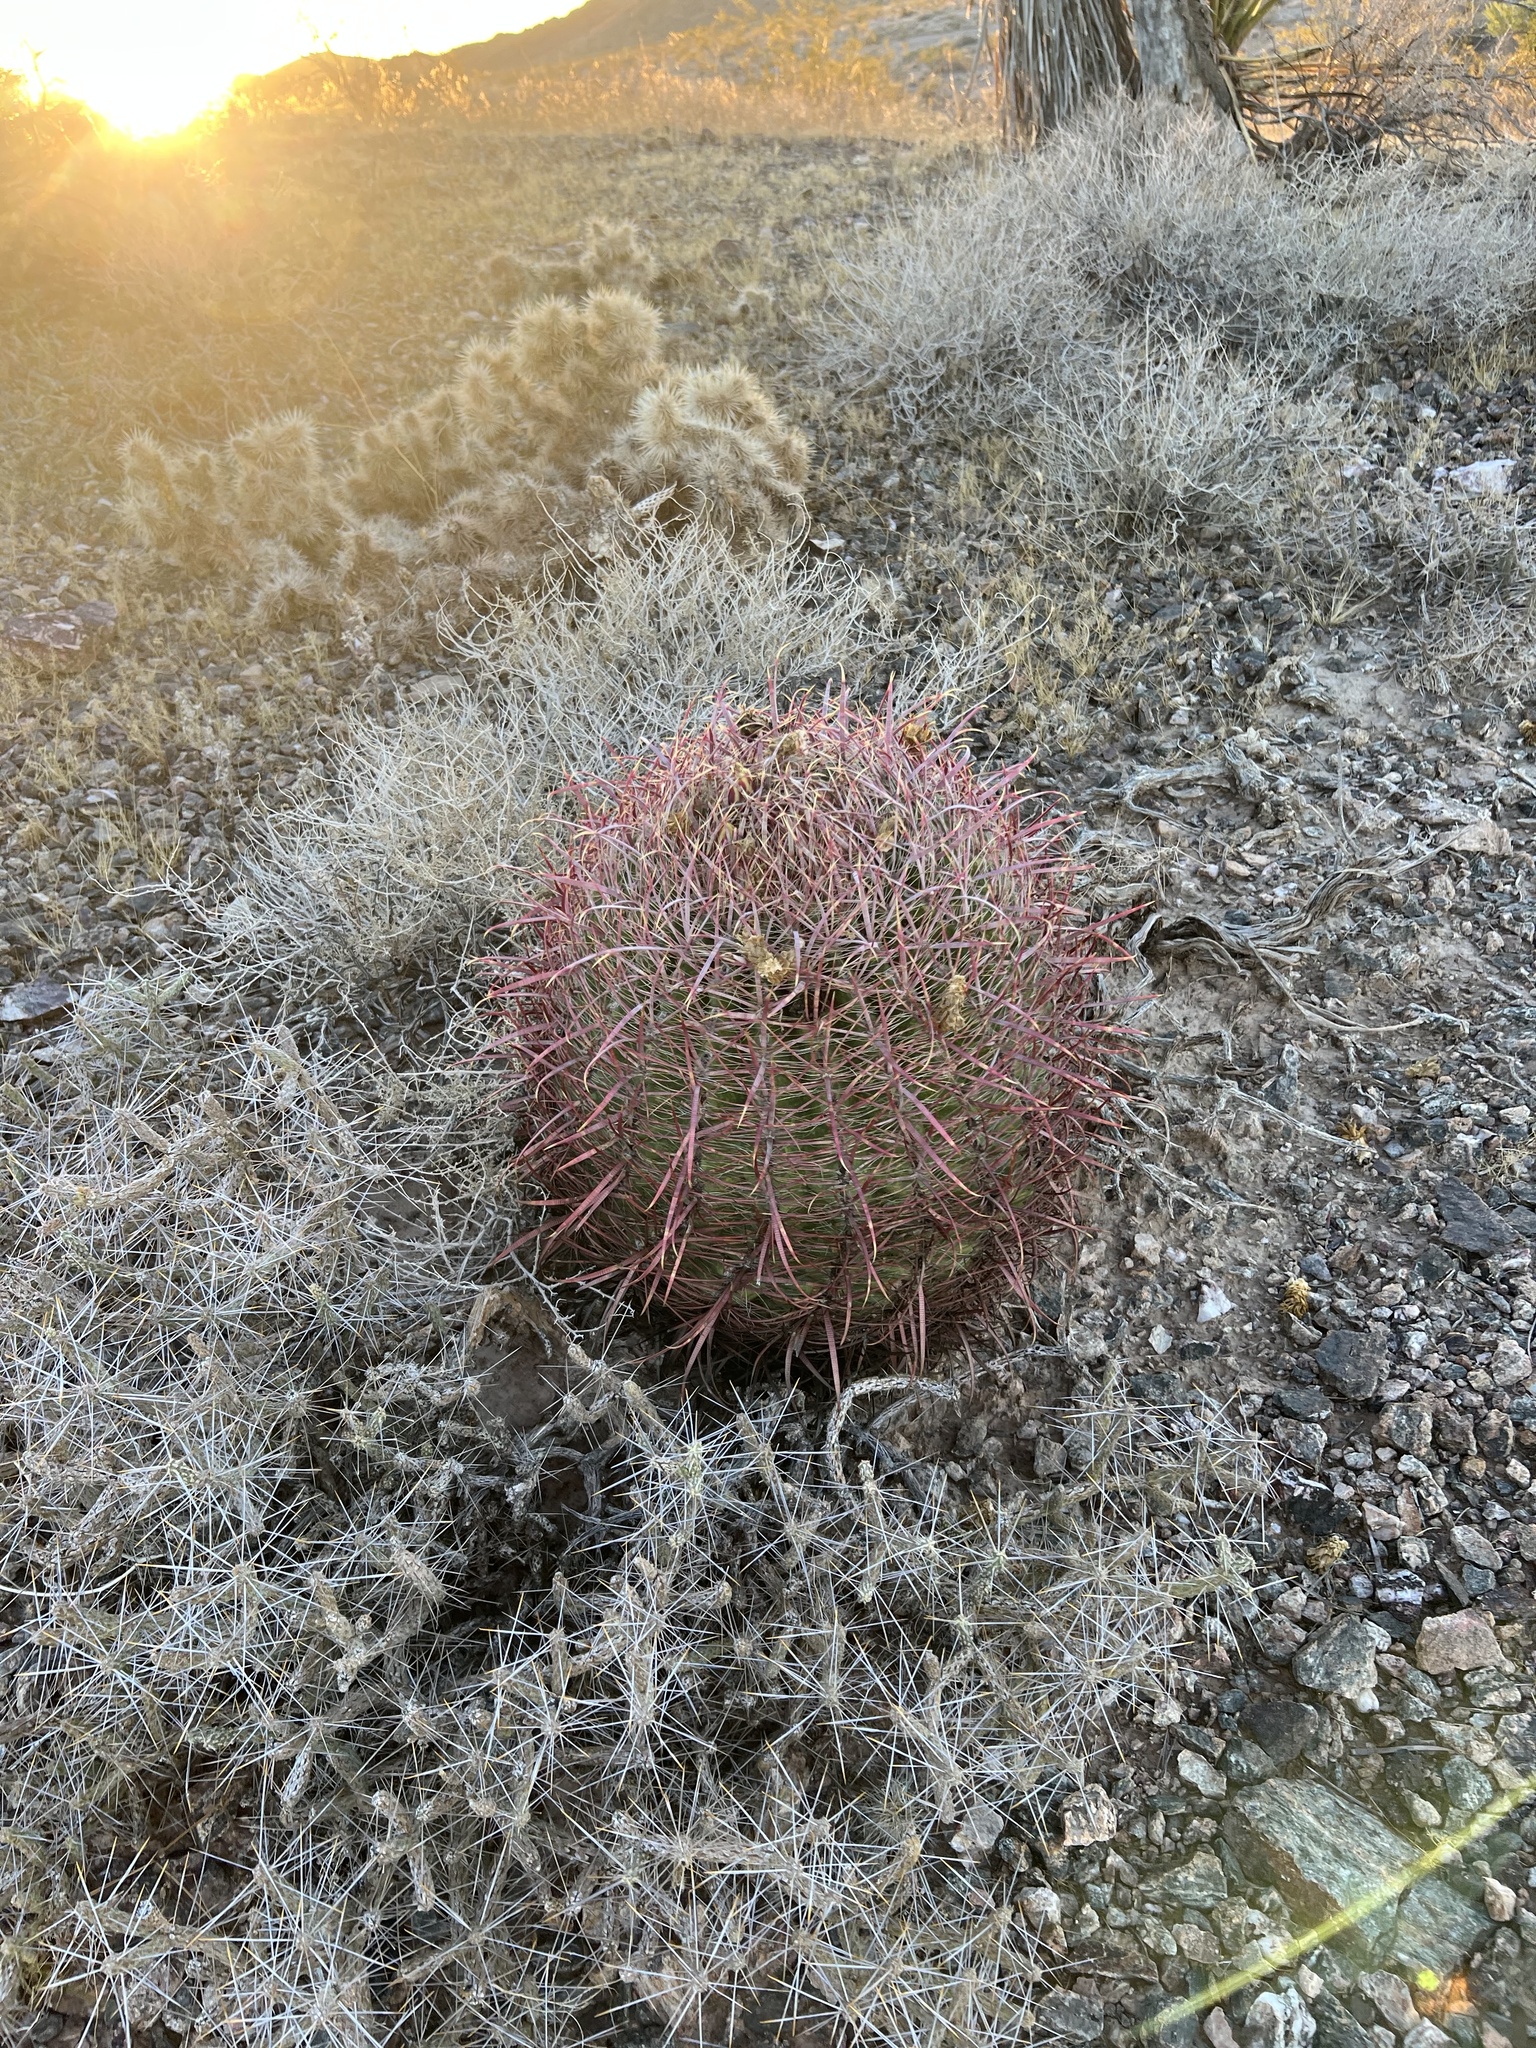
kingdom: Plantae
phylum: Tracheophyta
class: Magnoliopsida
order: Caryophyllales
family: Cactaceae
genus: Ferocactus
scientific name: Ferocactus cylindraceus
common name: California barrel cactus
